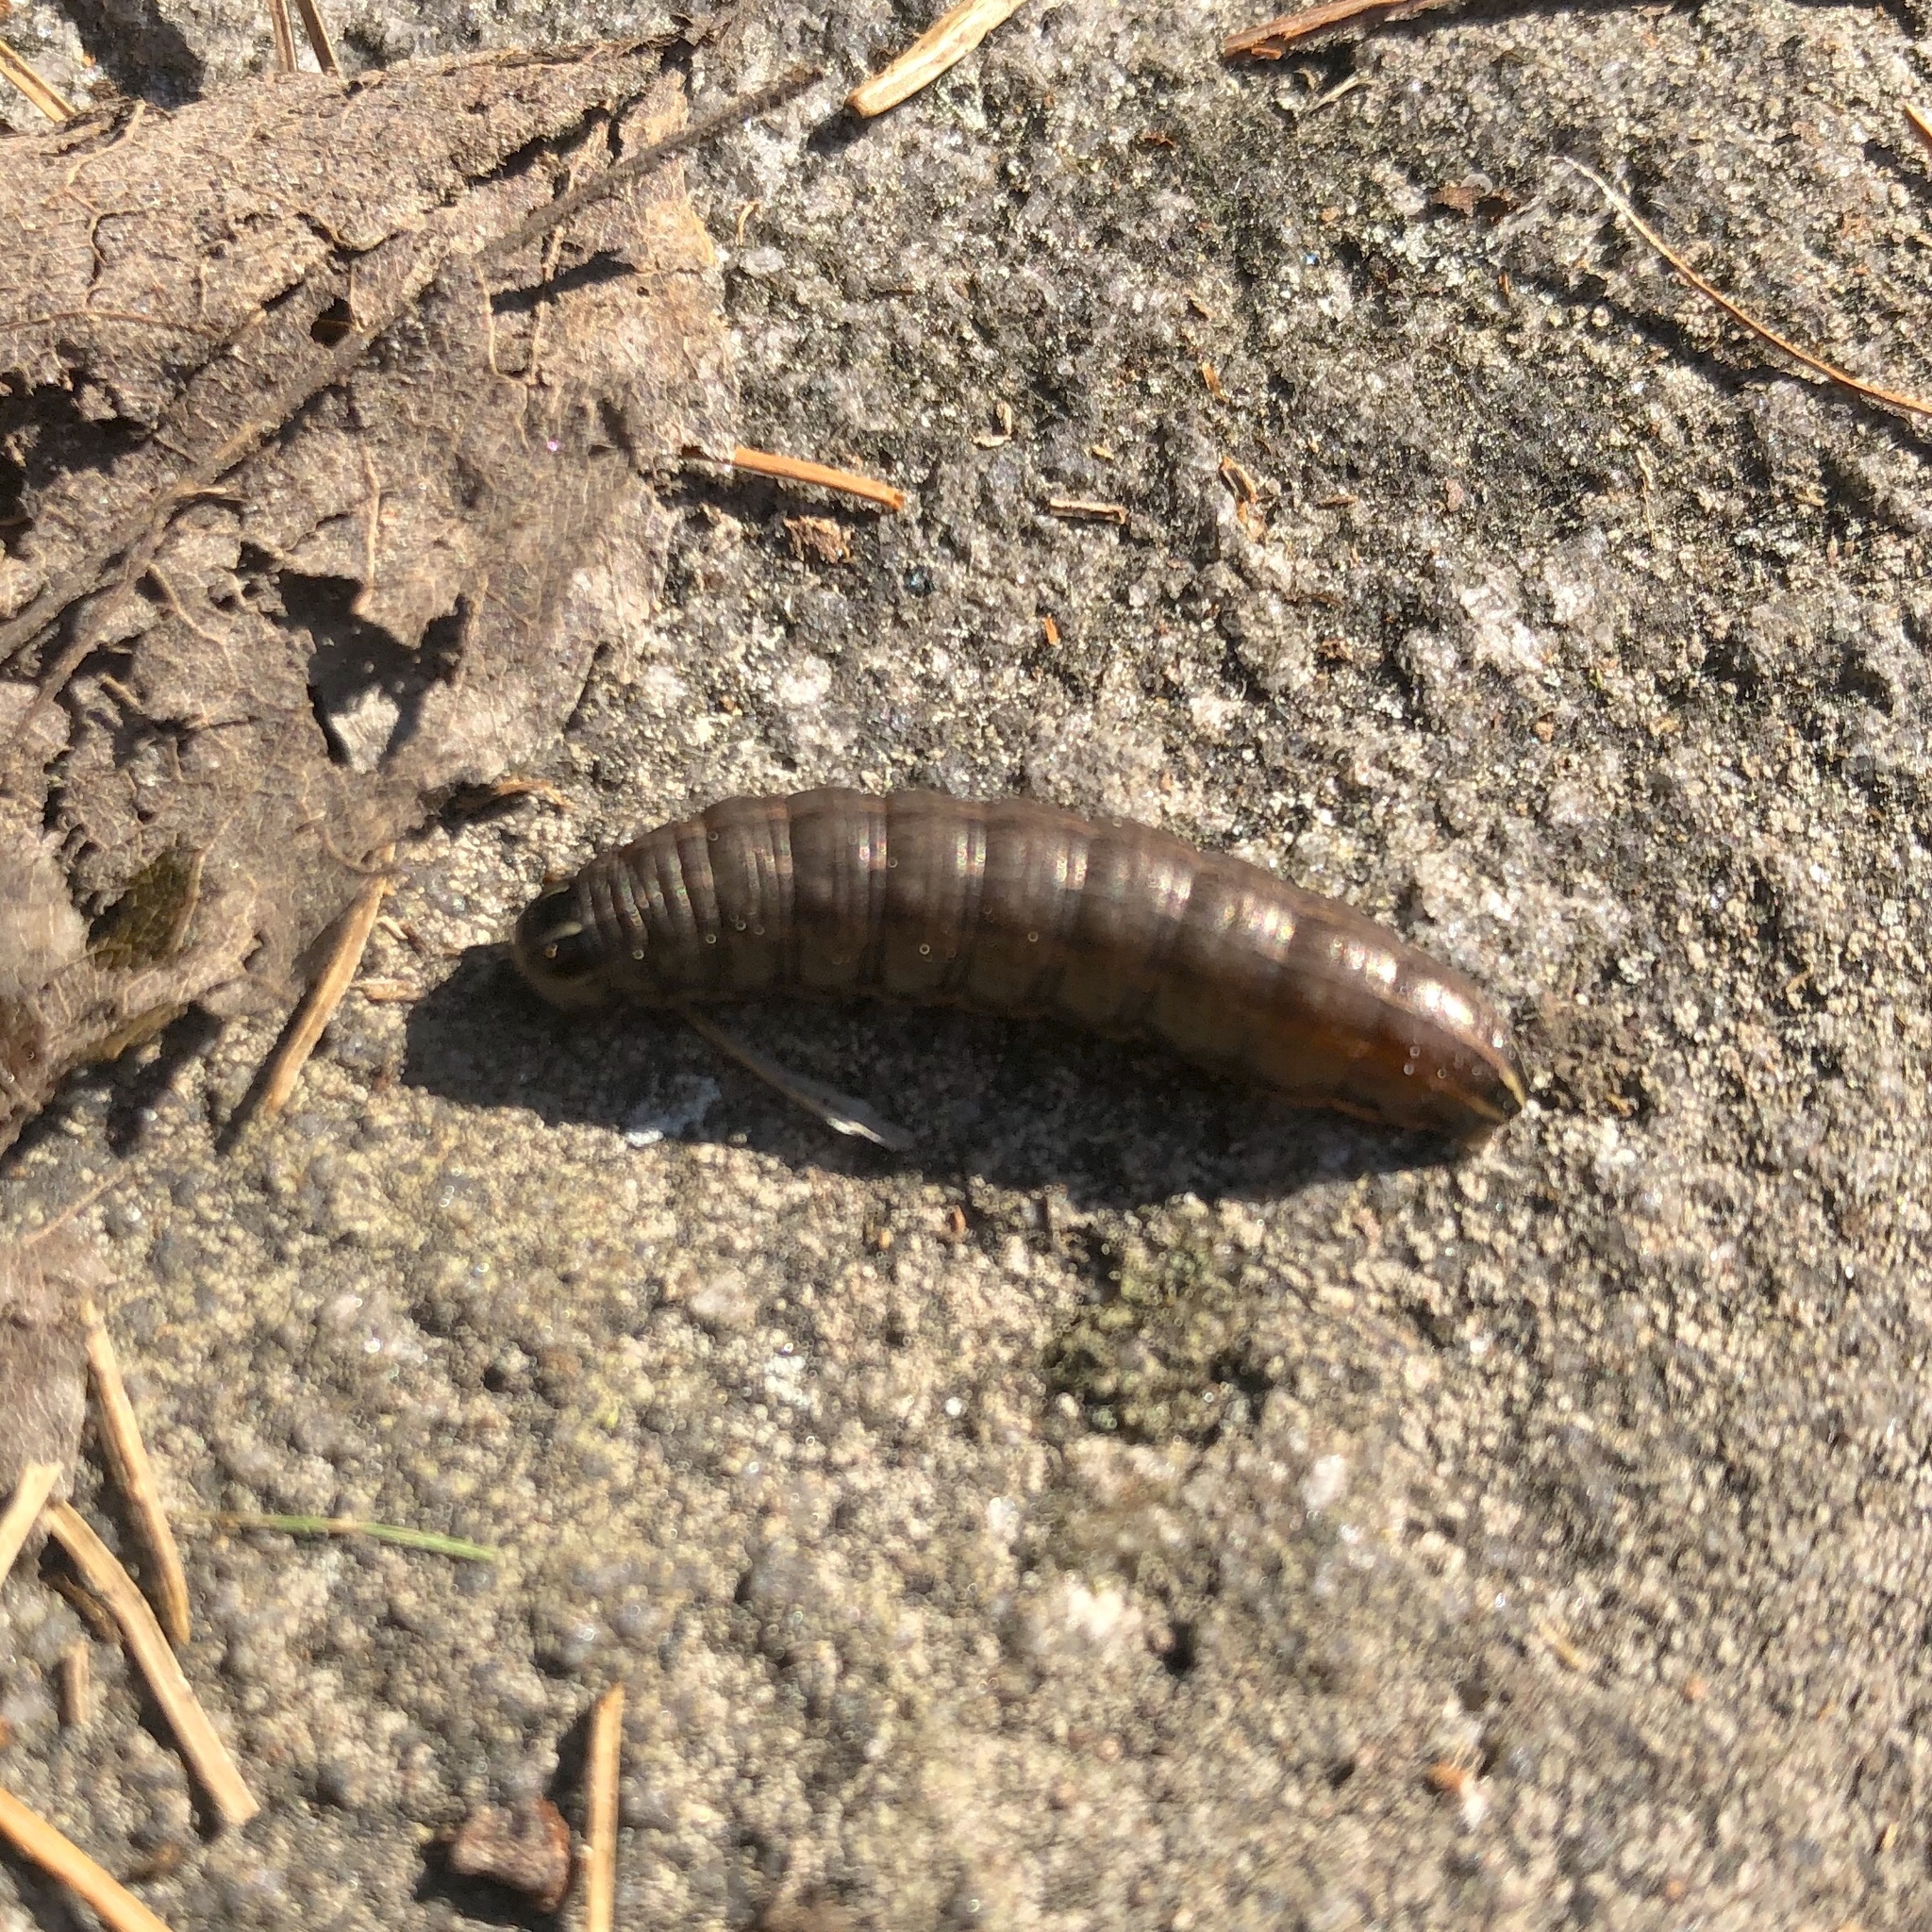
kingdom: Animalia
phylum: Arthropoda
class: Insecta
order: Lepidoptera
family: Noctuidae
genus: Nephelodes
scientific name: Nephelodes minians
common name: Bronzed cutworm
